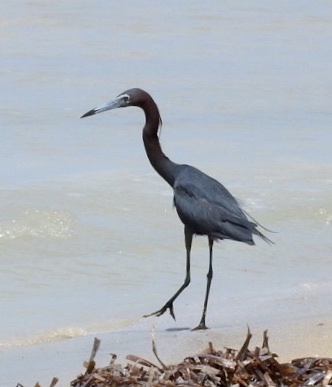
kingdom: Animalia
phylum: Chordata
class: Aves
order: Pelecaniformes
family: Ardeidae
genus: Egretta
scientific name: Egretta caerulea
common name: Little blue heron
